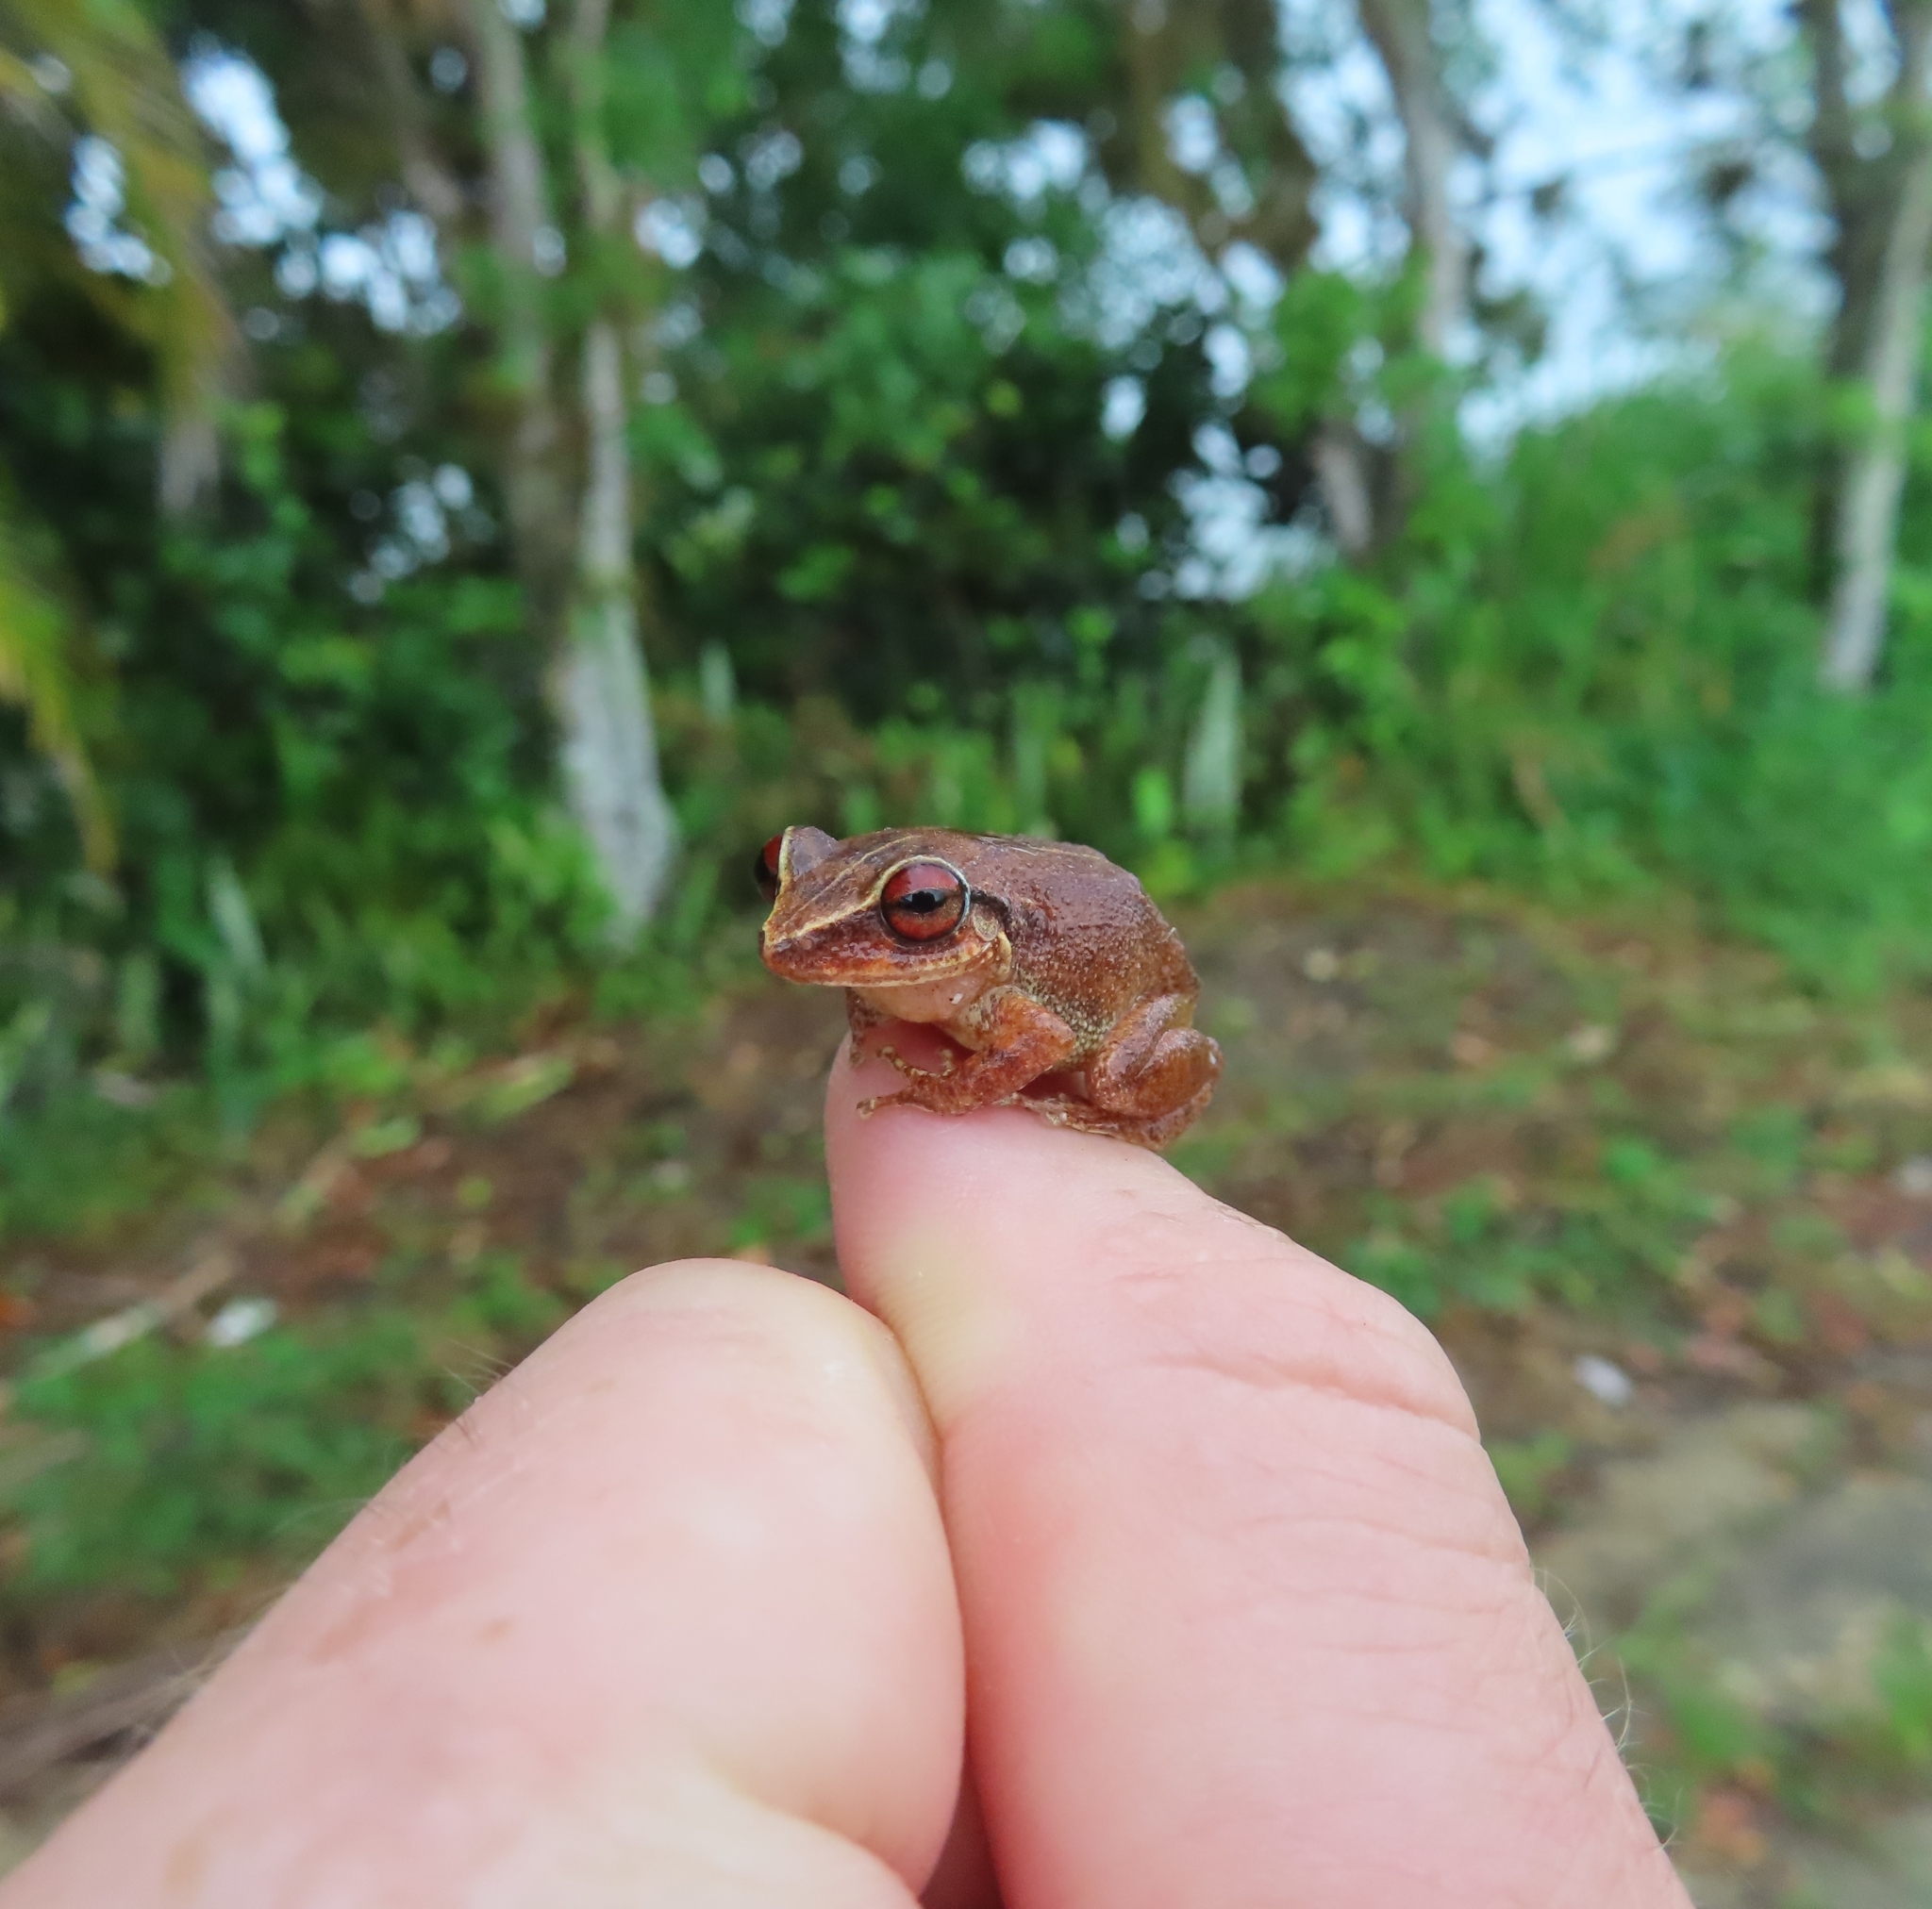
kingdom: Animalia
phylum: Chordata
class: Amphibia
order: Anura
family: Eleutherodactylidae
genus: Eleutherodactylus
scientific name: Eleutherodactylus antillensis
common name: Antillean coqui
